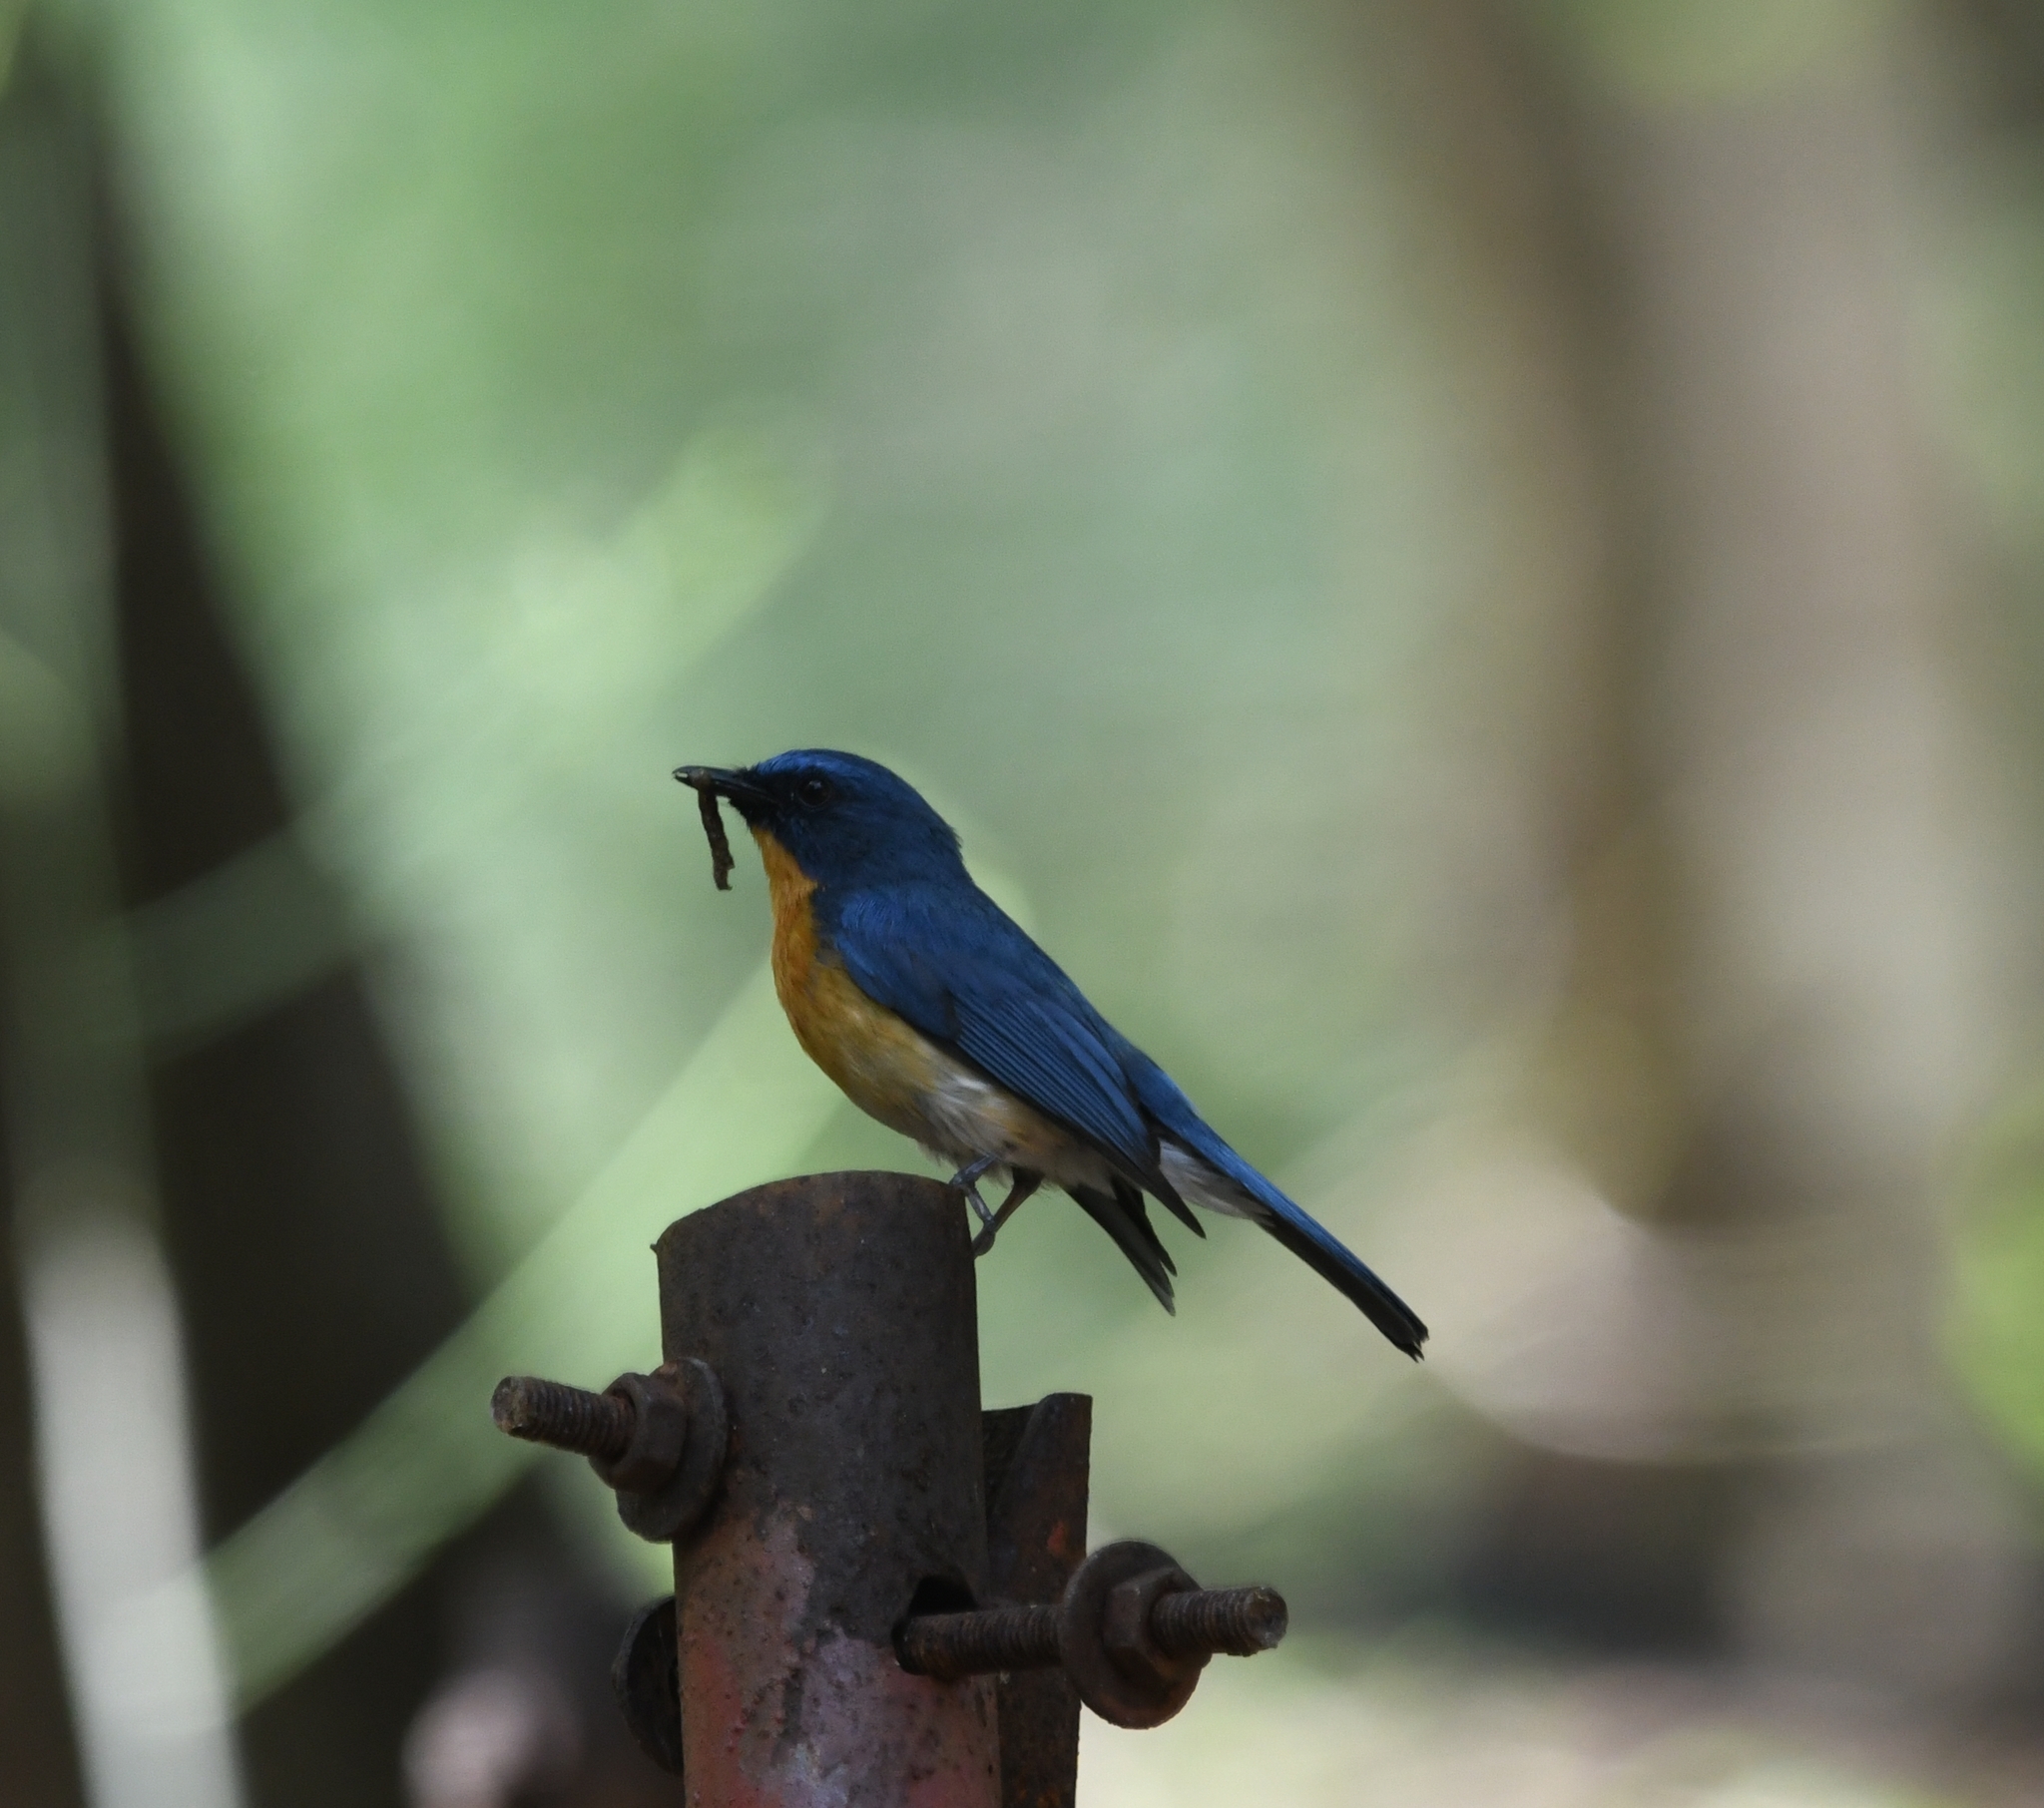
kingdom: Animalia
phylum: Chordata
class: Aves
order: Passeriformes
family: Muscicapidae
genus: Cyornis
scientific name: Cyornis tickelliae
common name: Tickell's blue flycatcher
